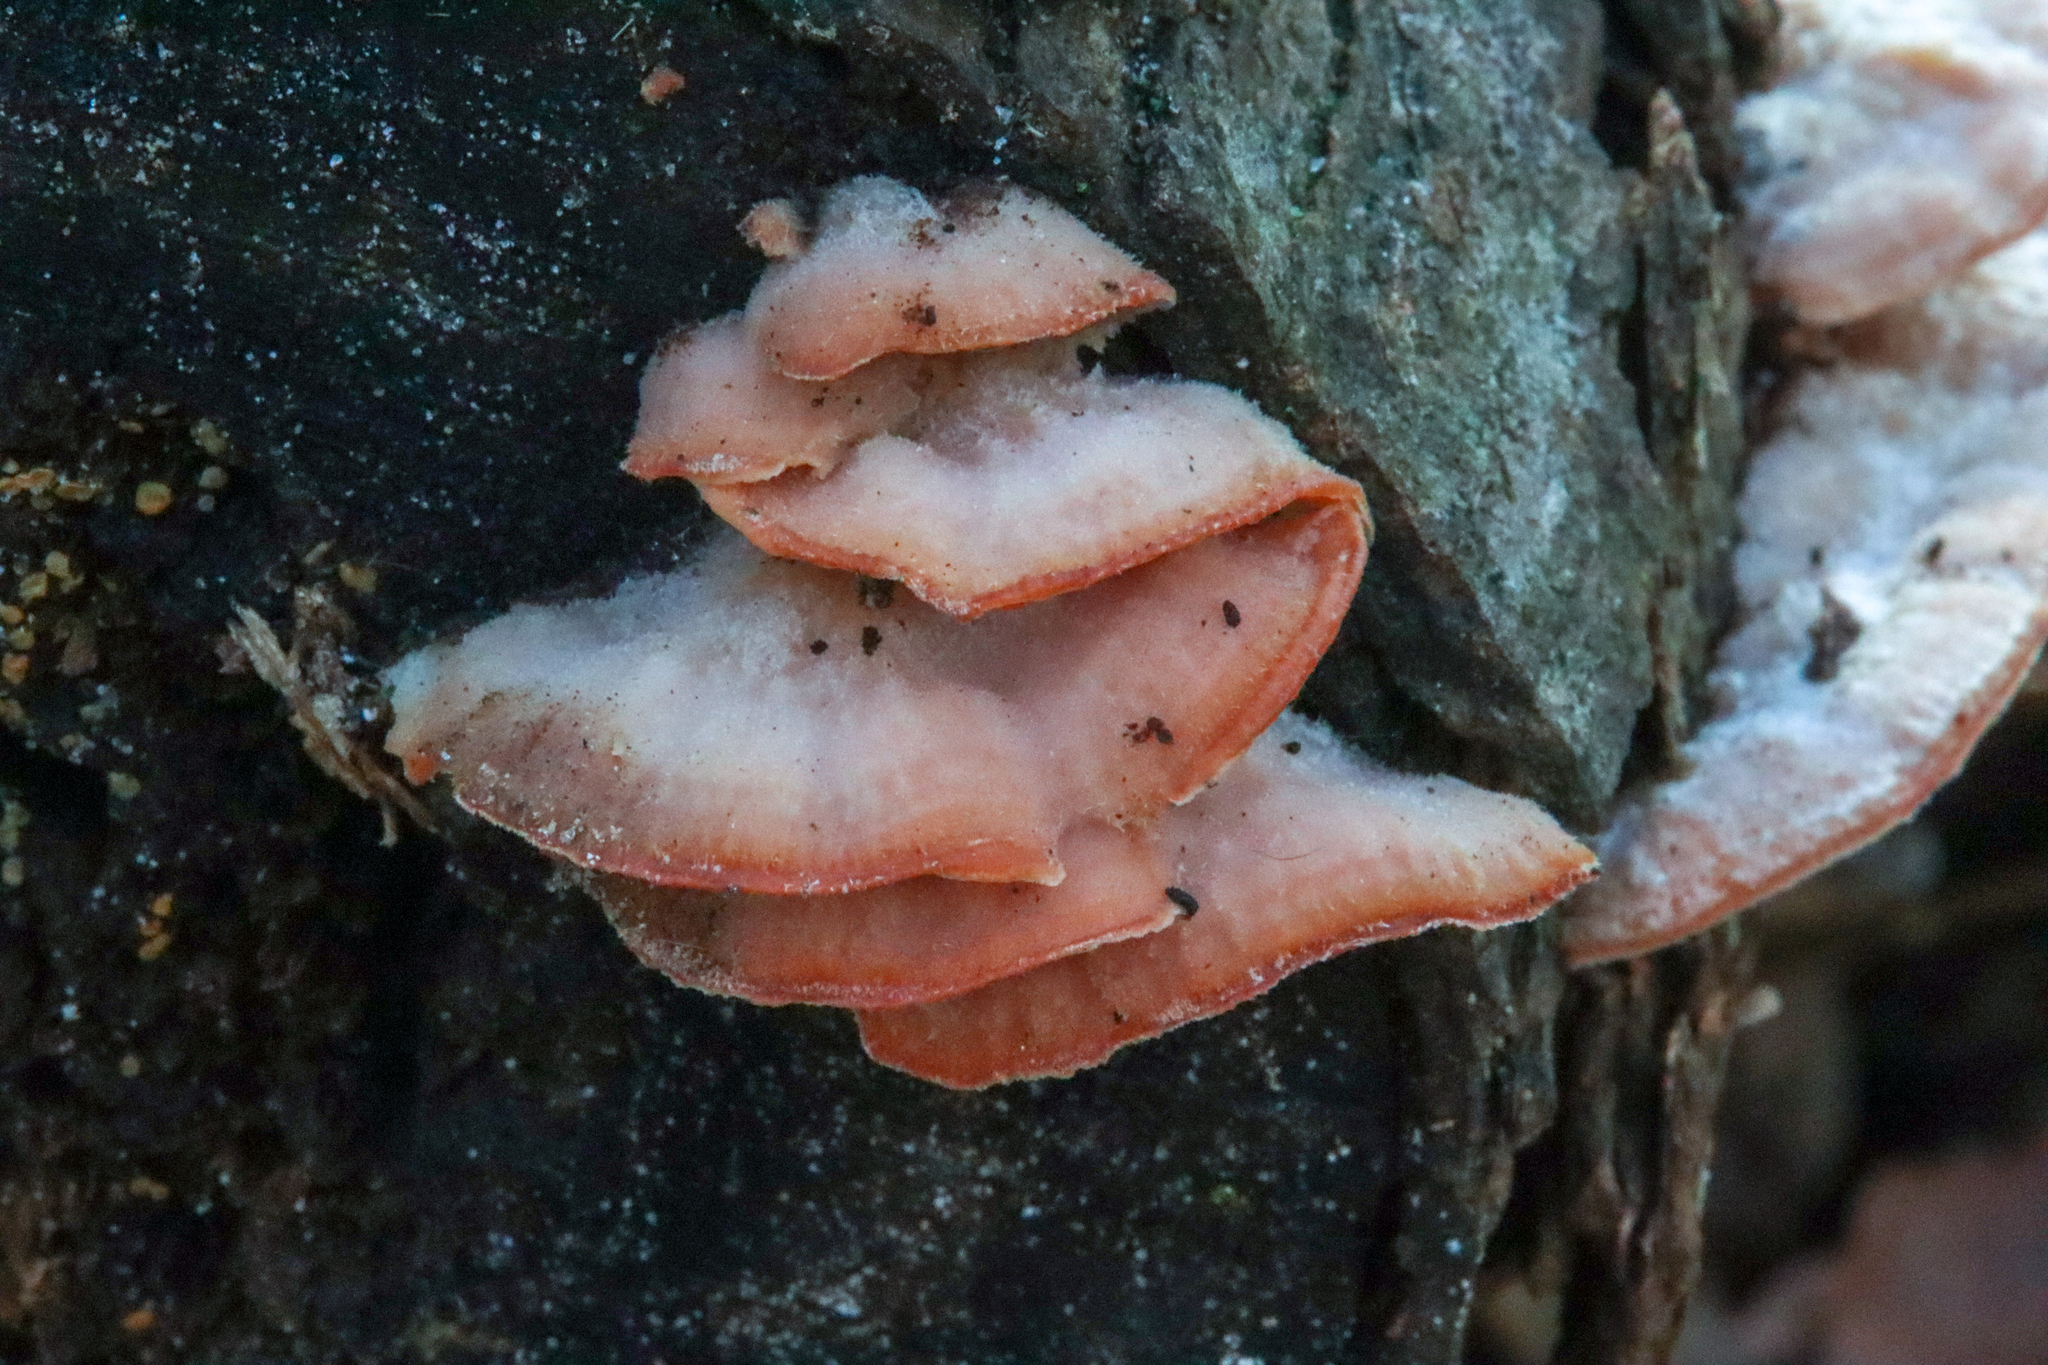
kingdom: Fungi
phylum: Basidiomycota
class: Agaricomycetes
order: Polyporales
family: Meruliaceae
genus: Phlebia
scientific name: Phlebia tremellosa
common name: Jelly rot
